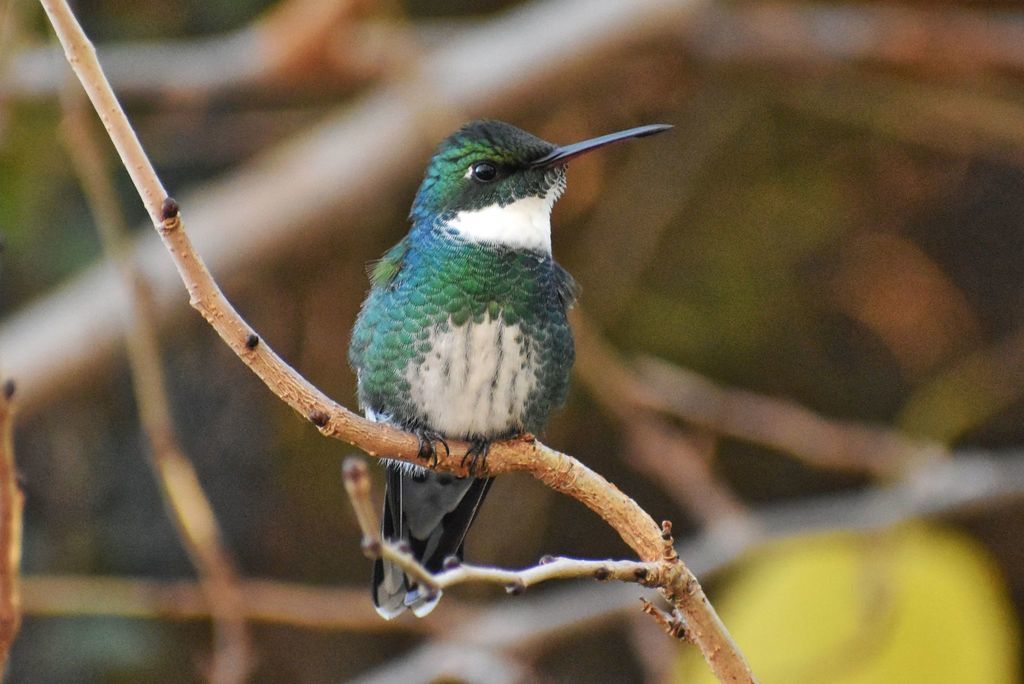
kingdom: Animalia
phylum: Chordata
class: Aves
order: Apodiformes
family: Trochilidae
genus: Leucochloris
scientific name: Leucochloris albicollis
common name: White-throated hummingbird
